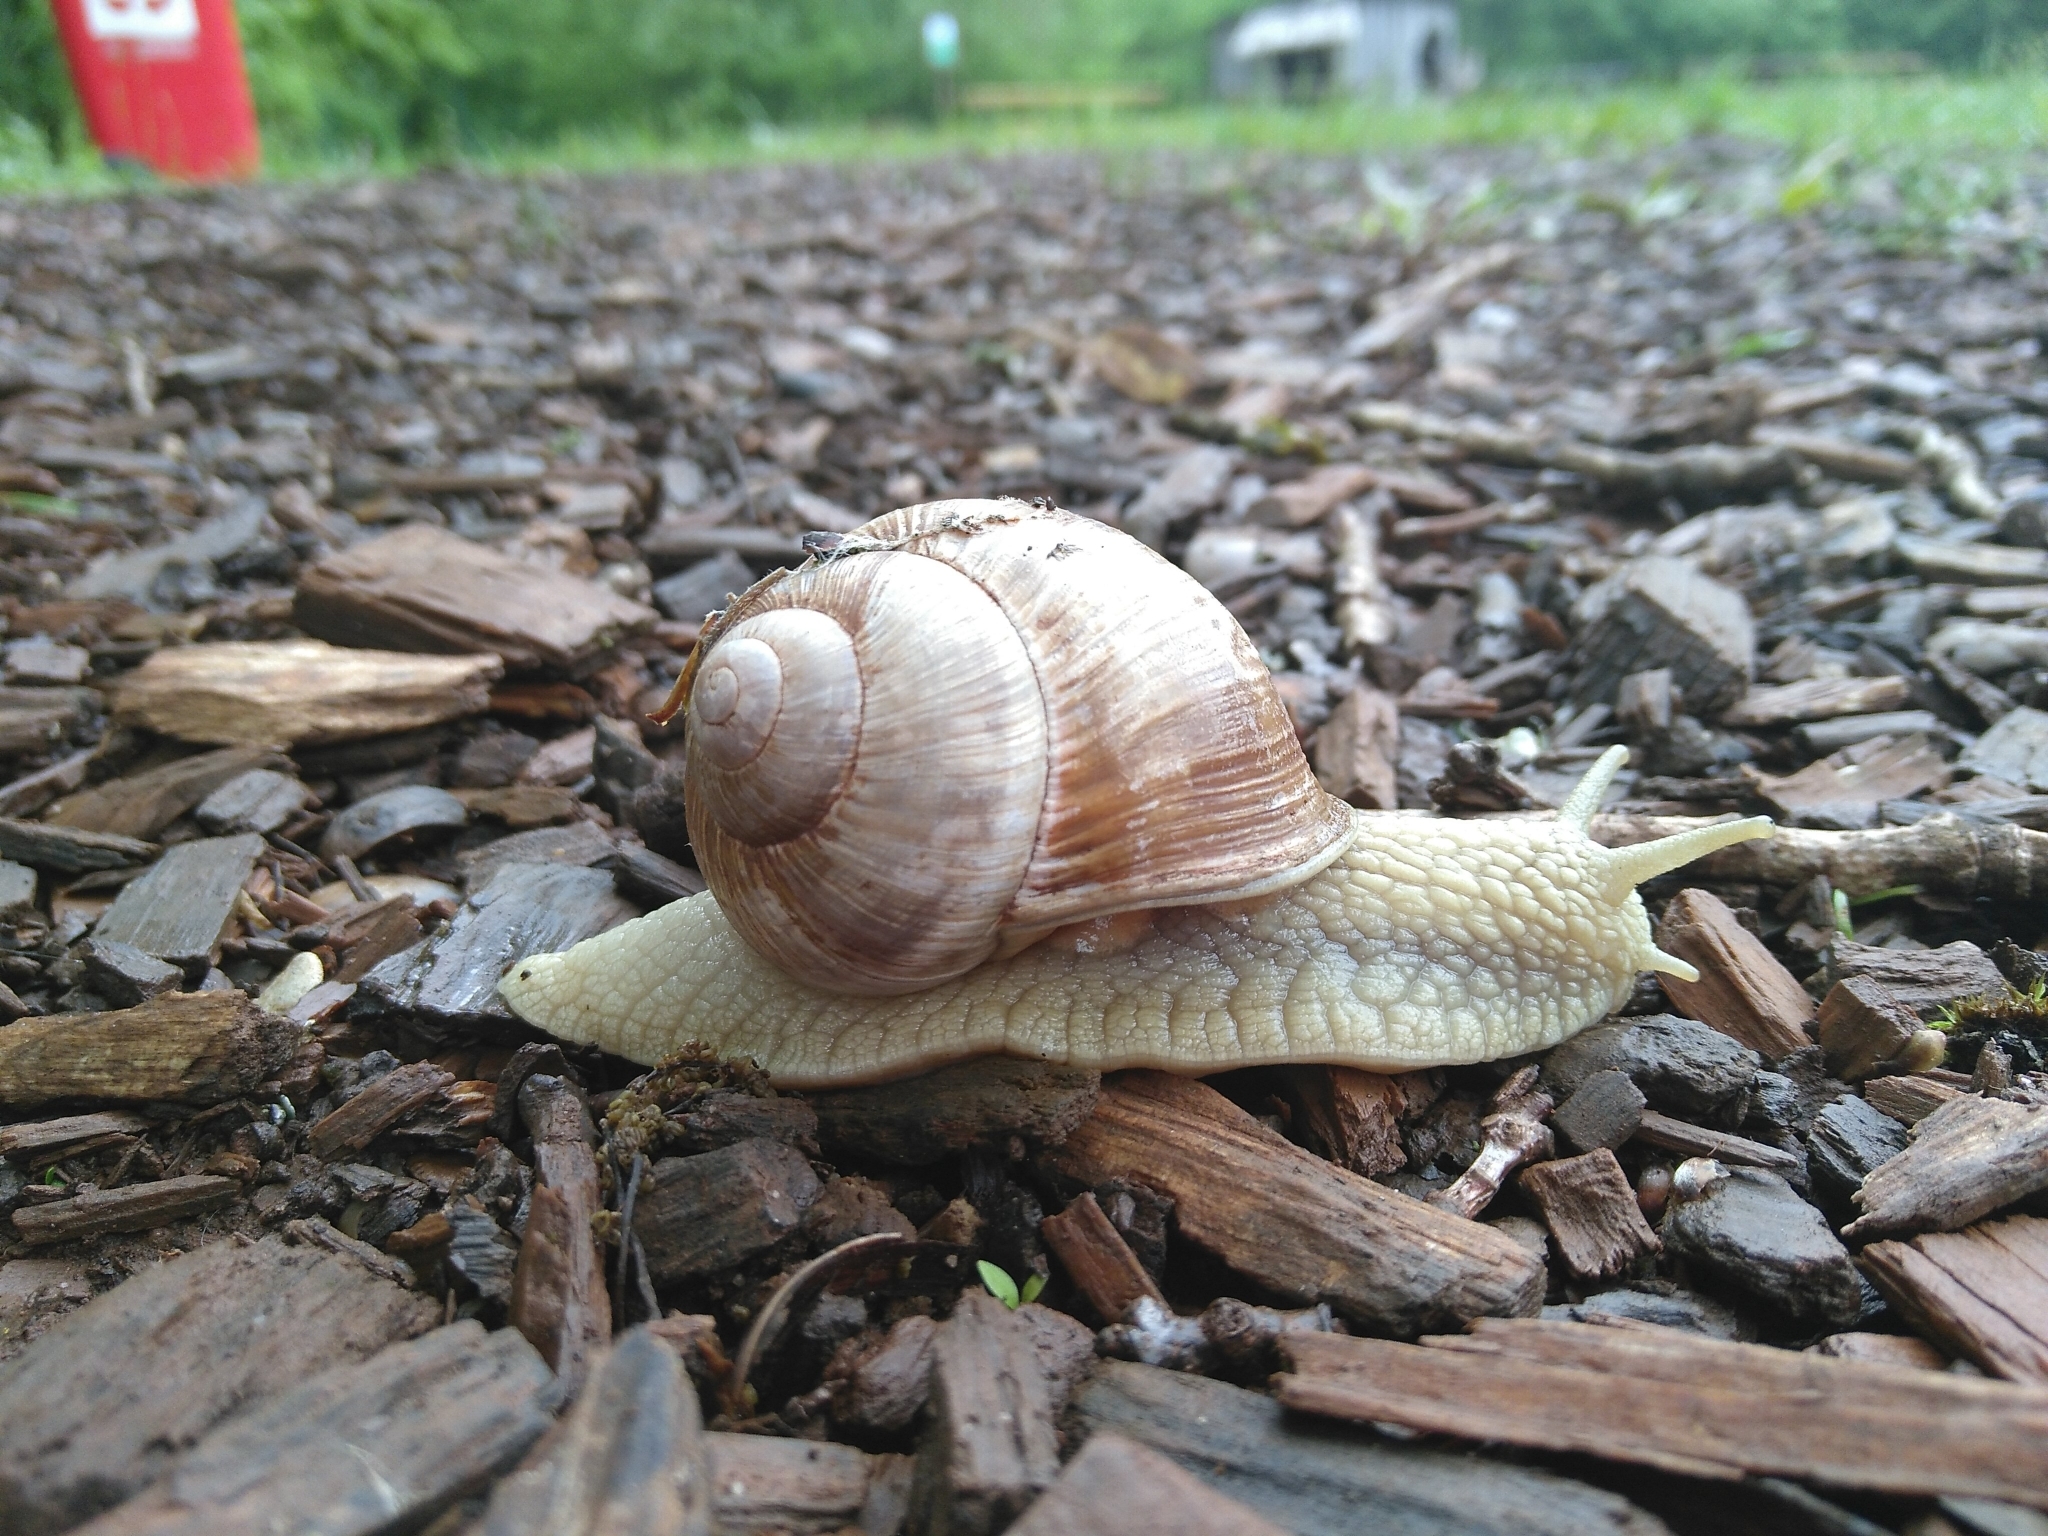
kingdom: Animalia
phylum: Mollusca
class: Gastropoda
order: Stylommatophora
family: Helicidae
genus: Helix
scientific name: Helix pomatia
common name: Roman snail
